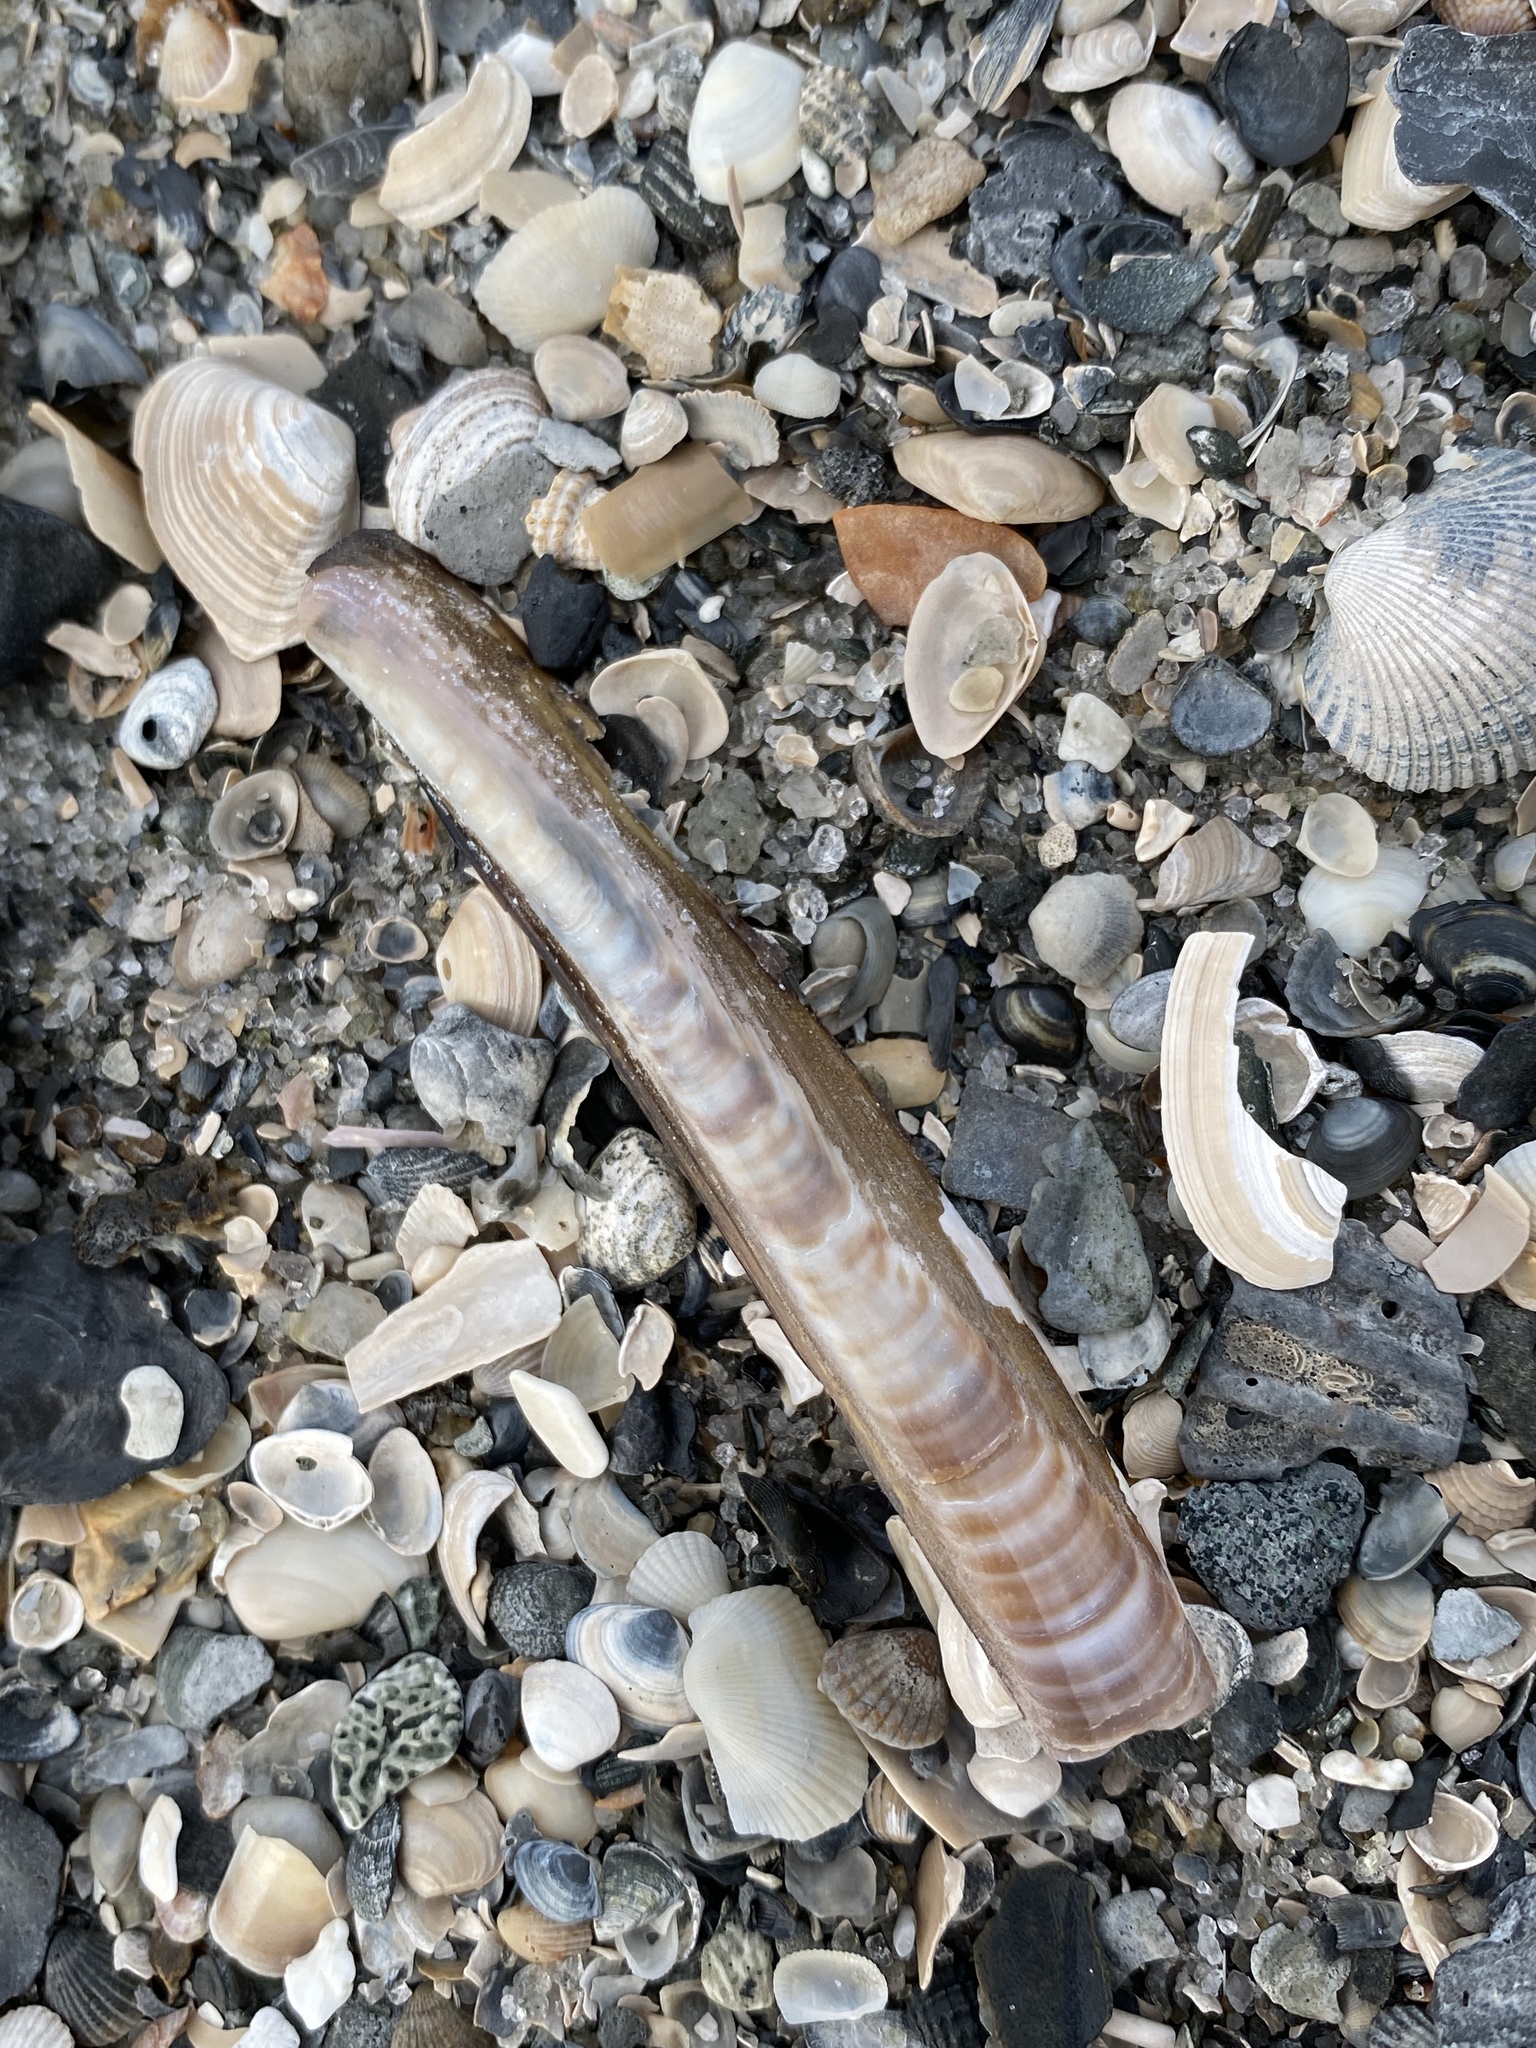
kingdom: Animalia
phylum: Mollusca
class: Bivalvia
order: Adapedonta
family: Pharidae
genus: Ensis
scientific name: Ensis leei
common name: American jack knife clam
